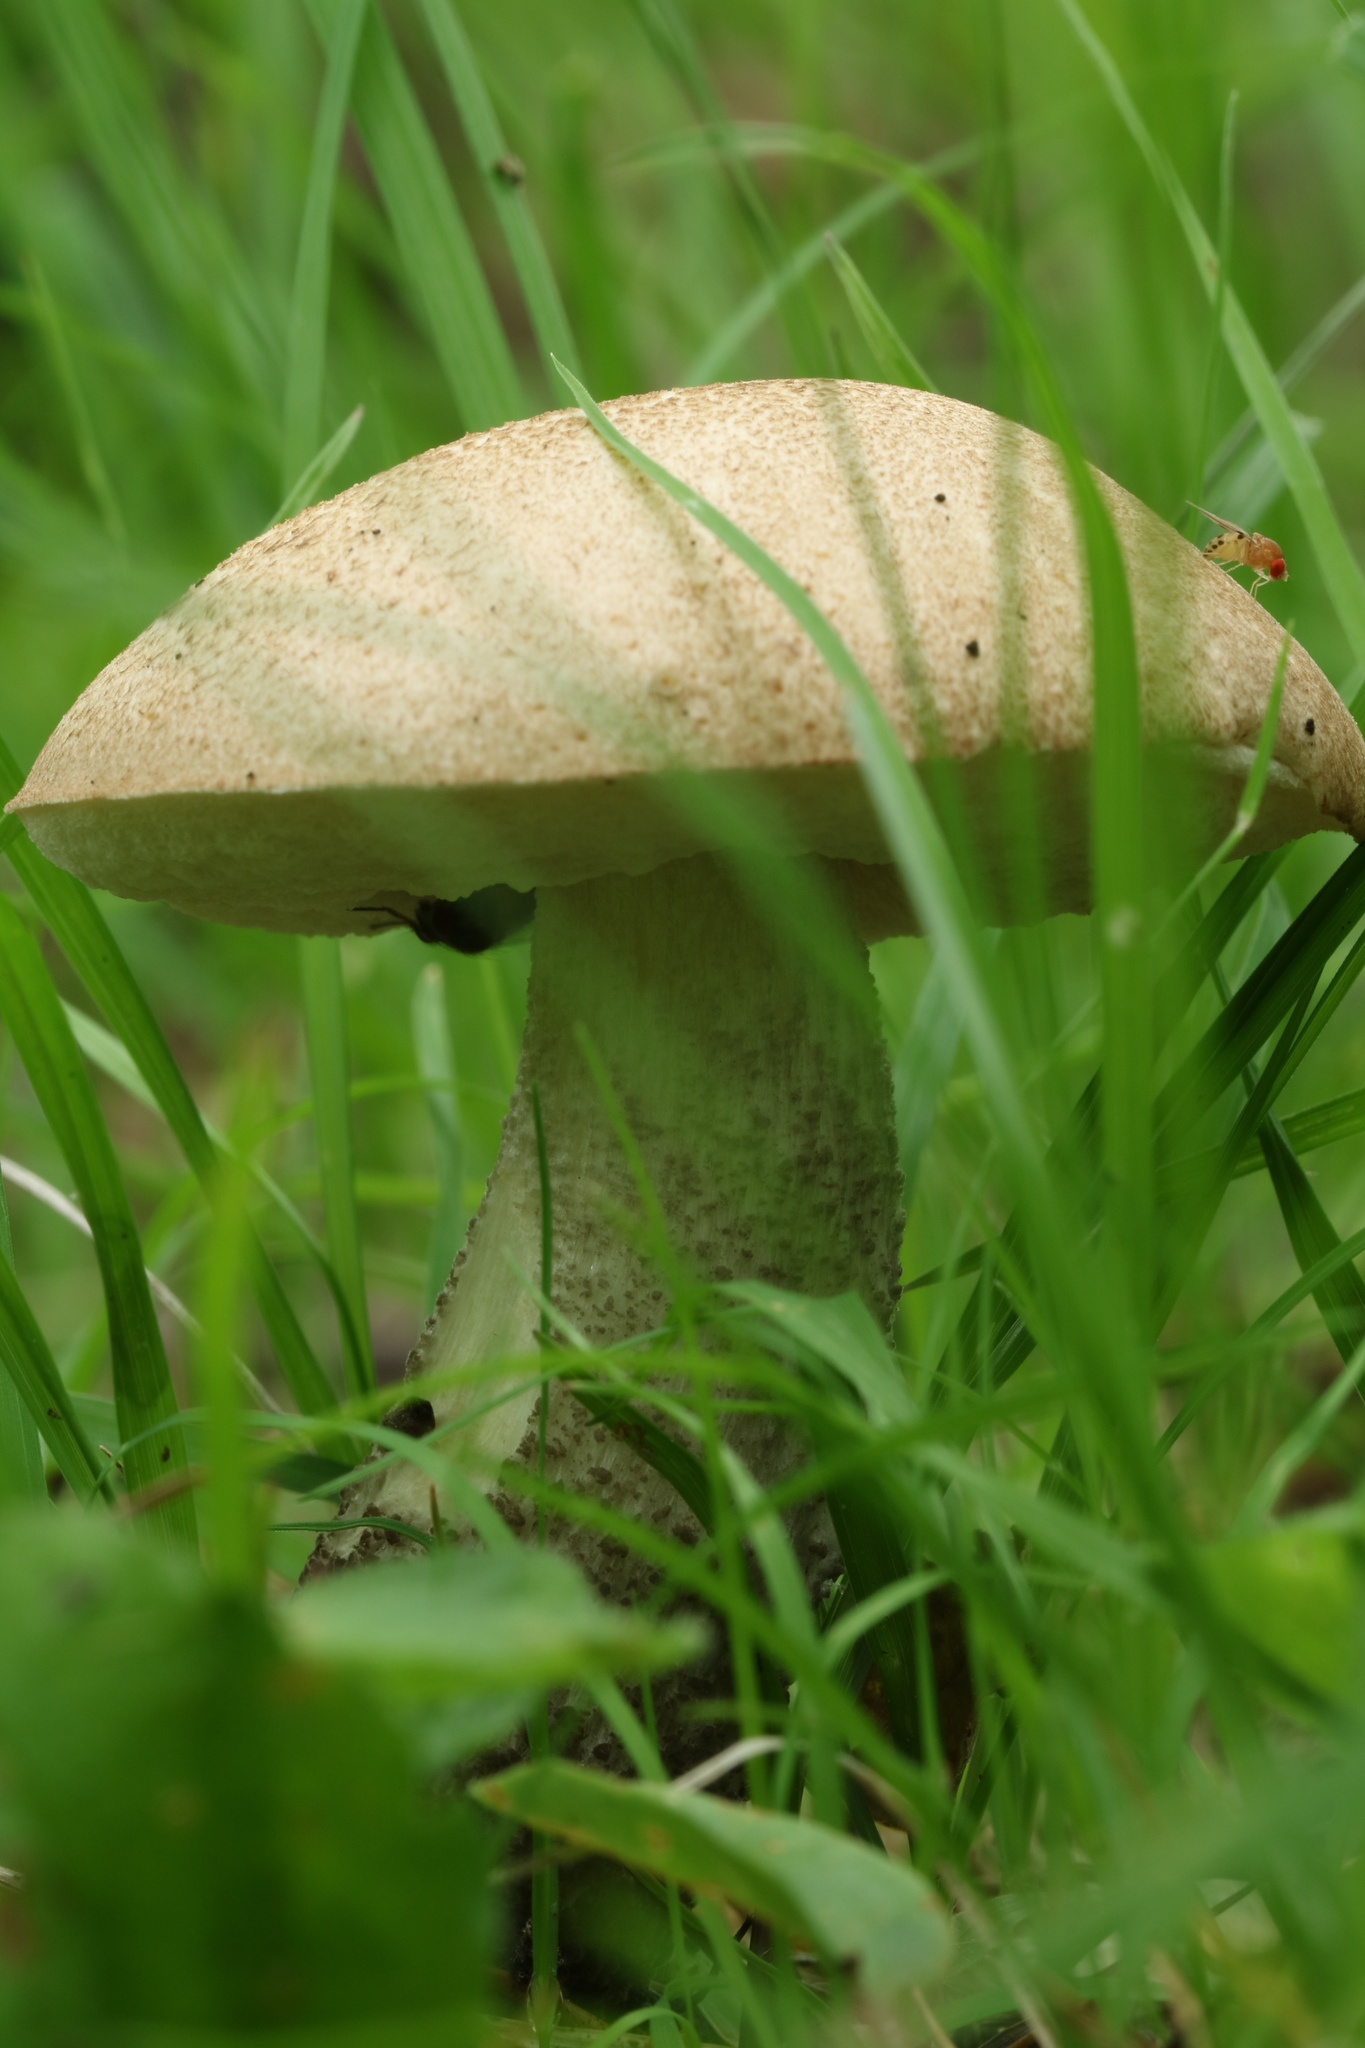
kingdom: Fungi
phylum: Basidiomycota
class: Agaricomycetes
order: Boletales
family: Boletaceae
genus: Leccinum
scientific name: Leccinum scabrum
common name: Blushing bolete
